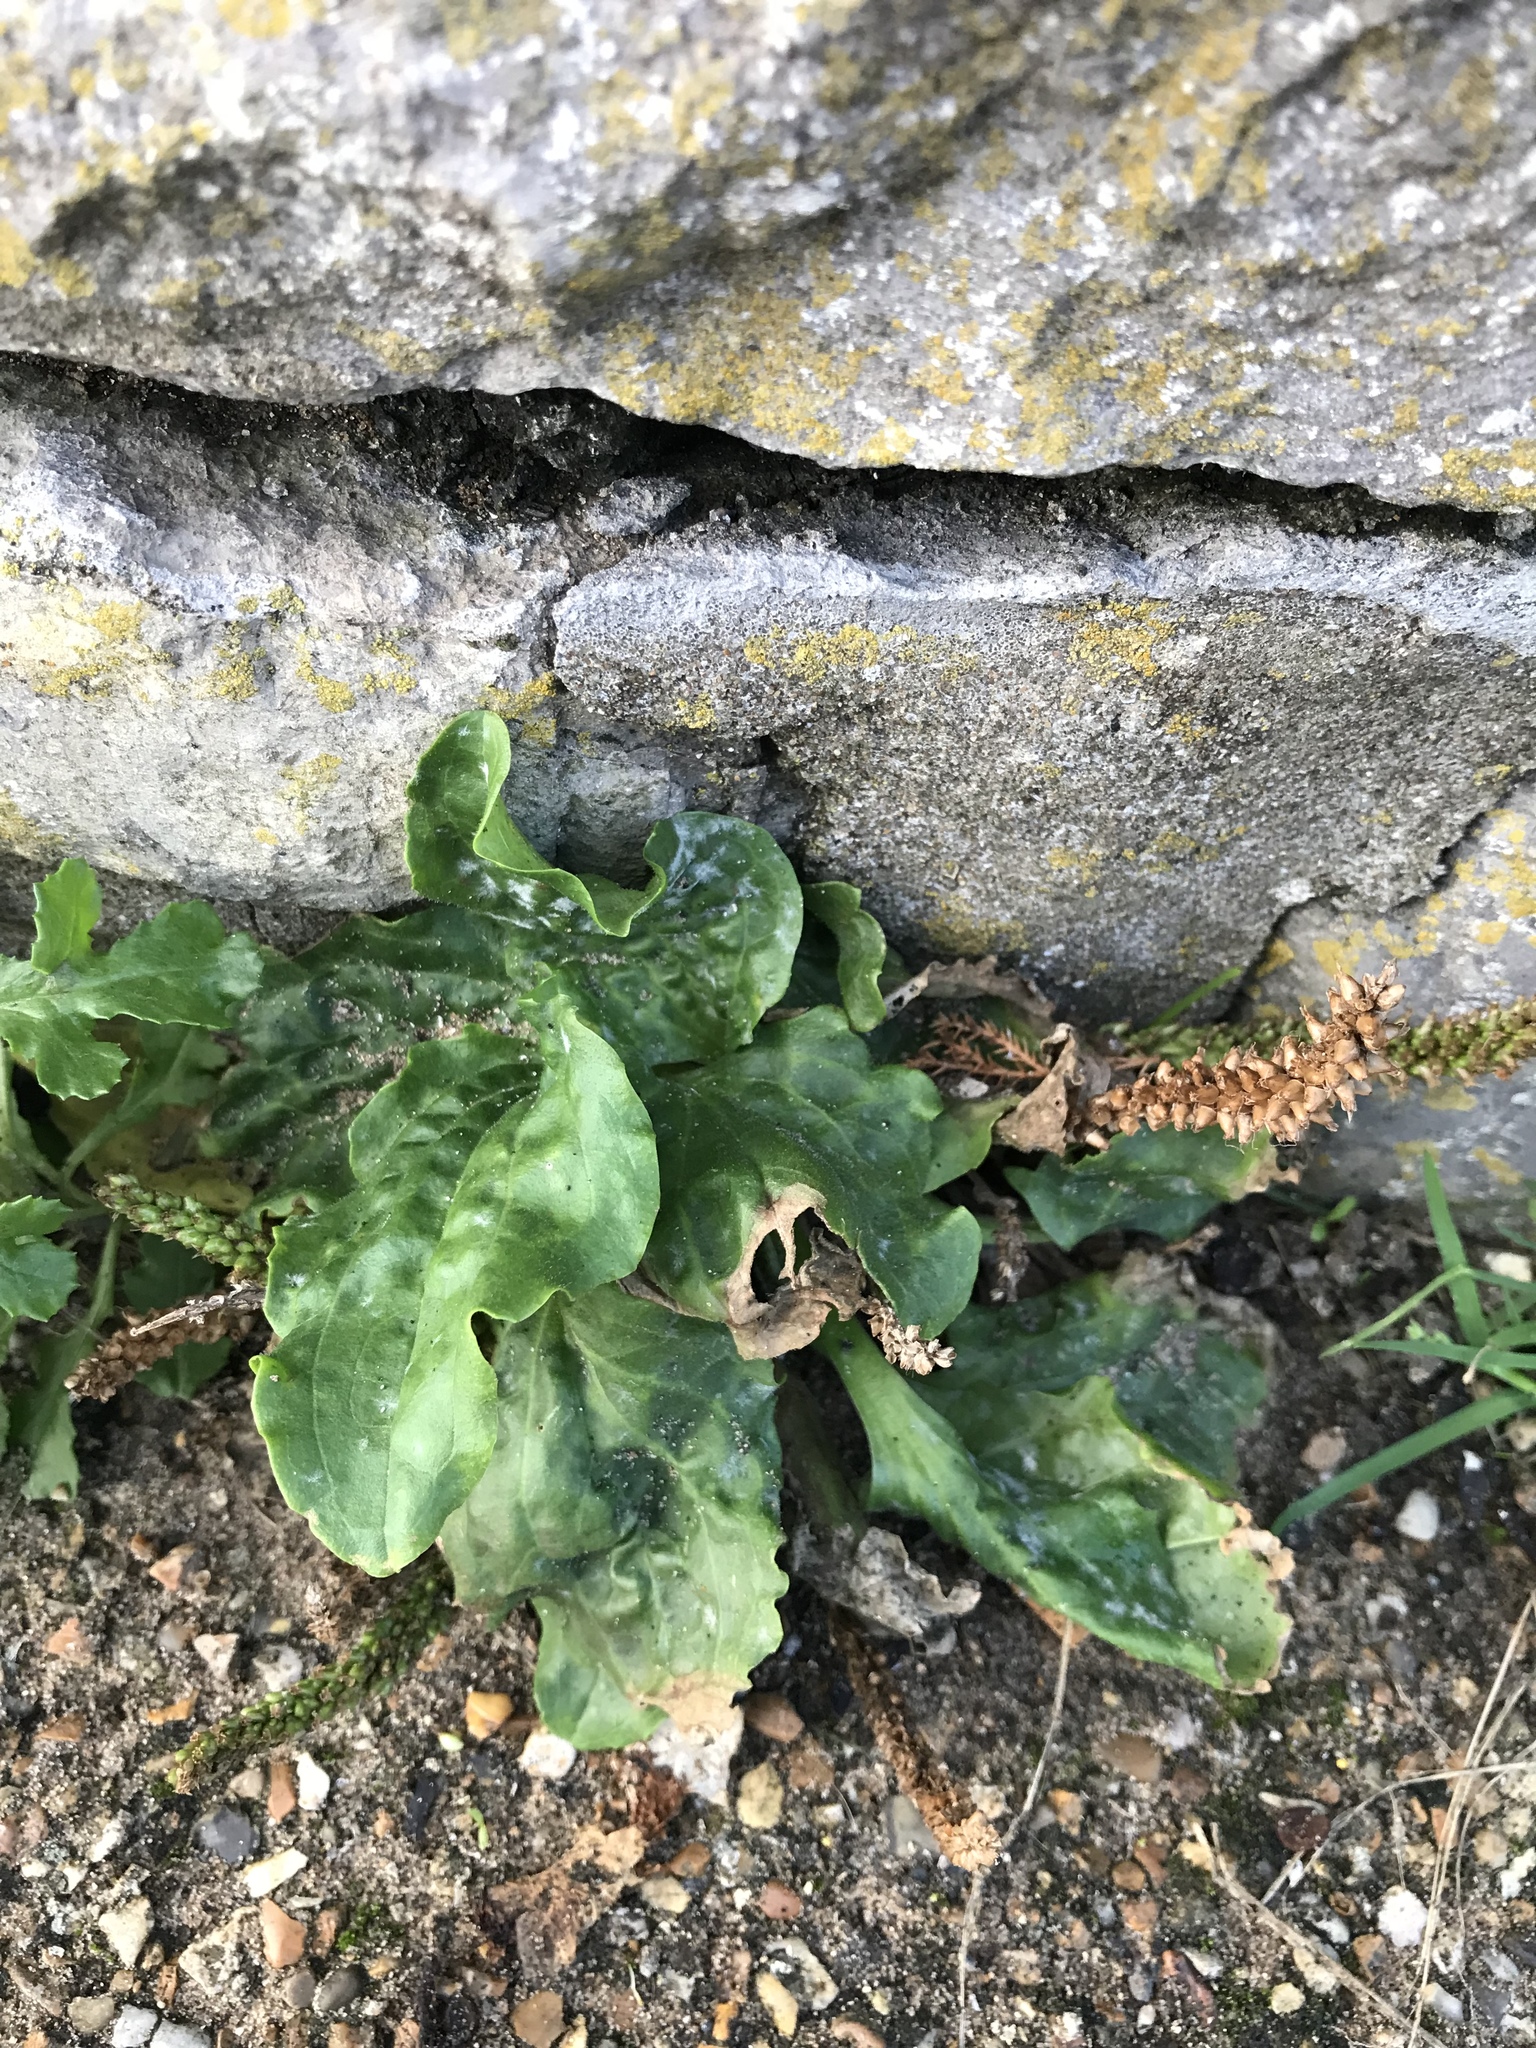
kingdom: Plantae
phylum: Tracheophyta
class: Magnoliopsida
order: Lamiales
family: Plantaginaceae
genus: Plantago
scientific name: Plantago major
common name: Common plantain
